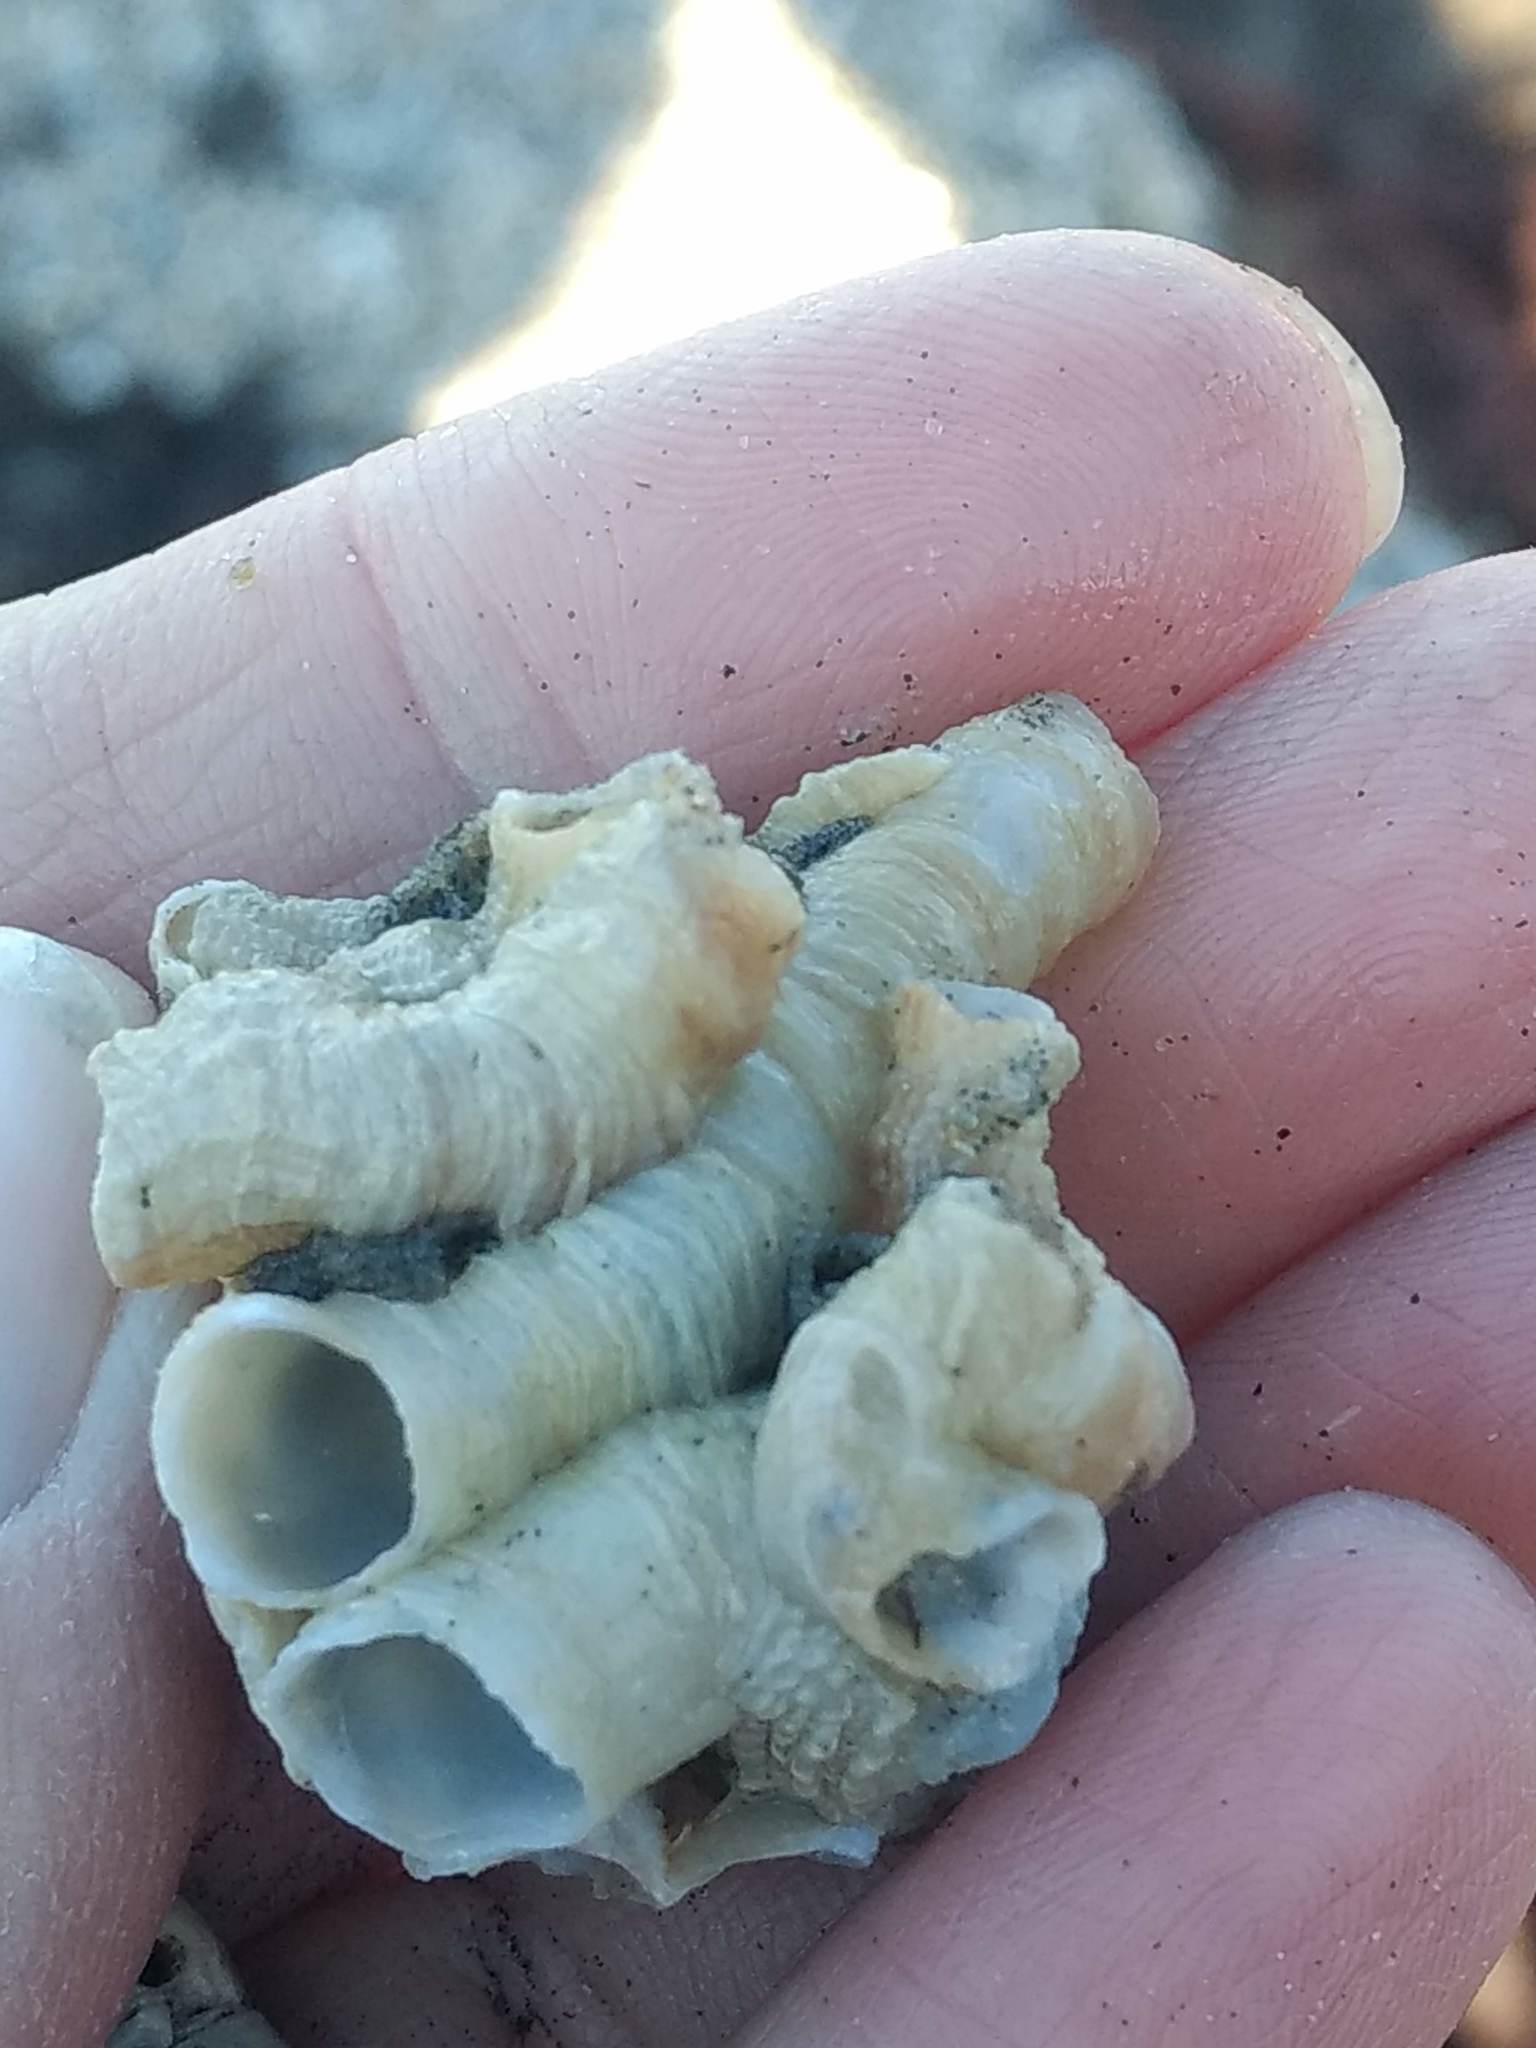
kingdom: Animalia
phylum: Mollusca
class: Gastropoda
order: Littorinimorpha
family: Vermetidae
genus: Thylacodes
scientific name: Thylacodes squamigerus
